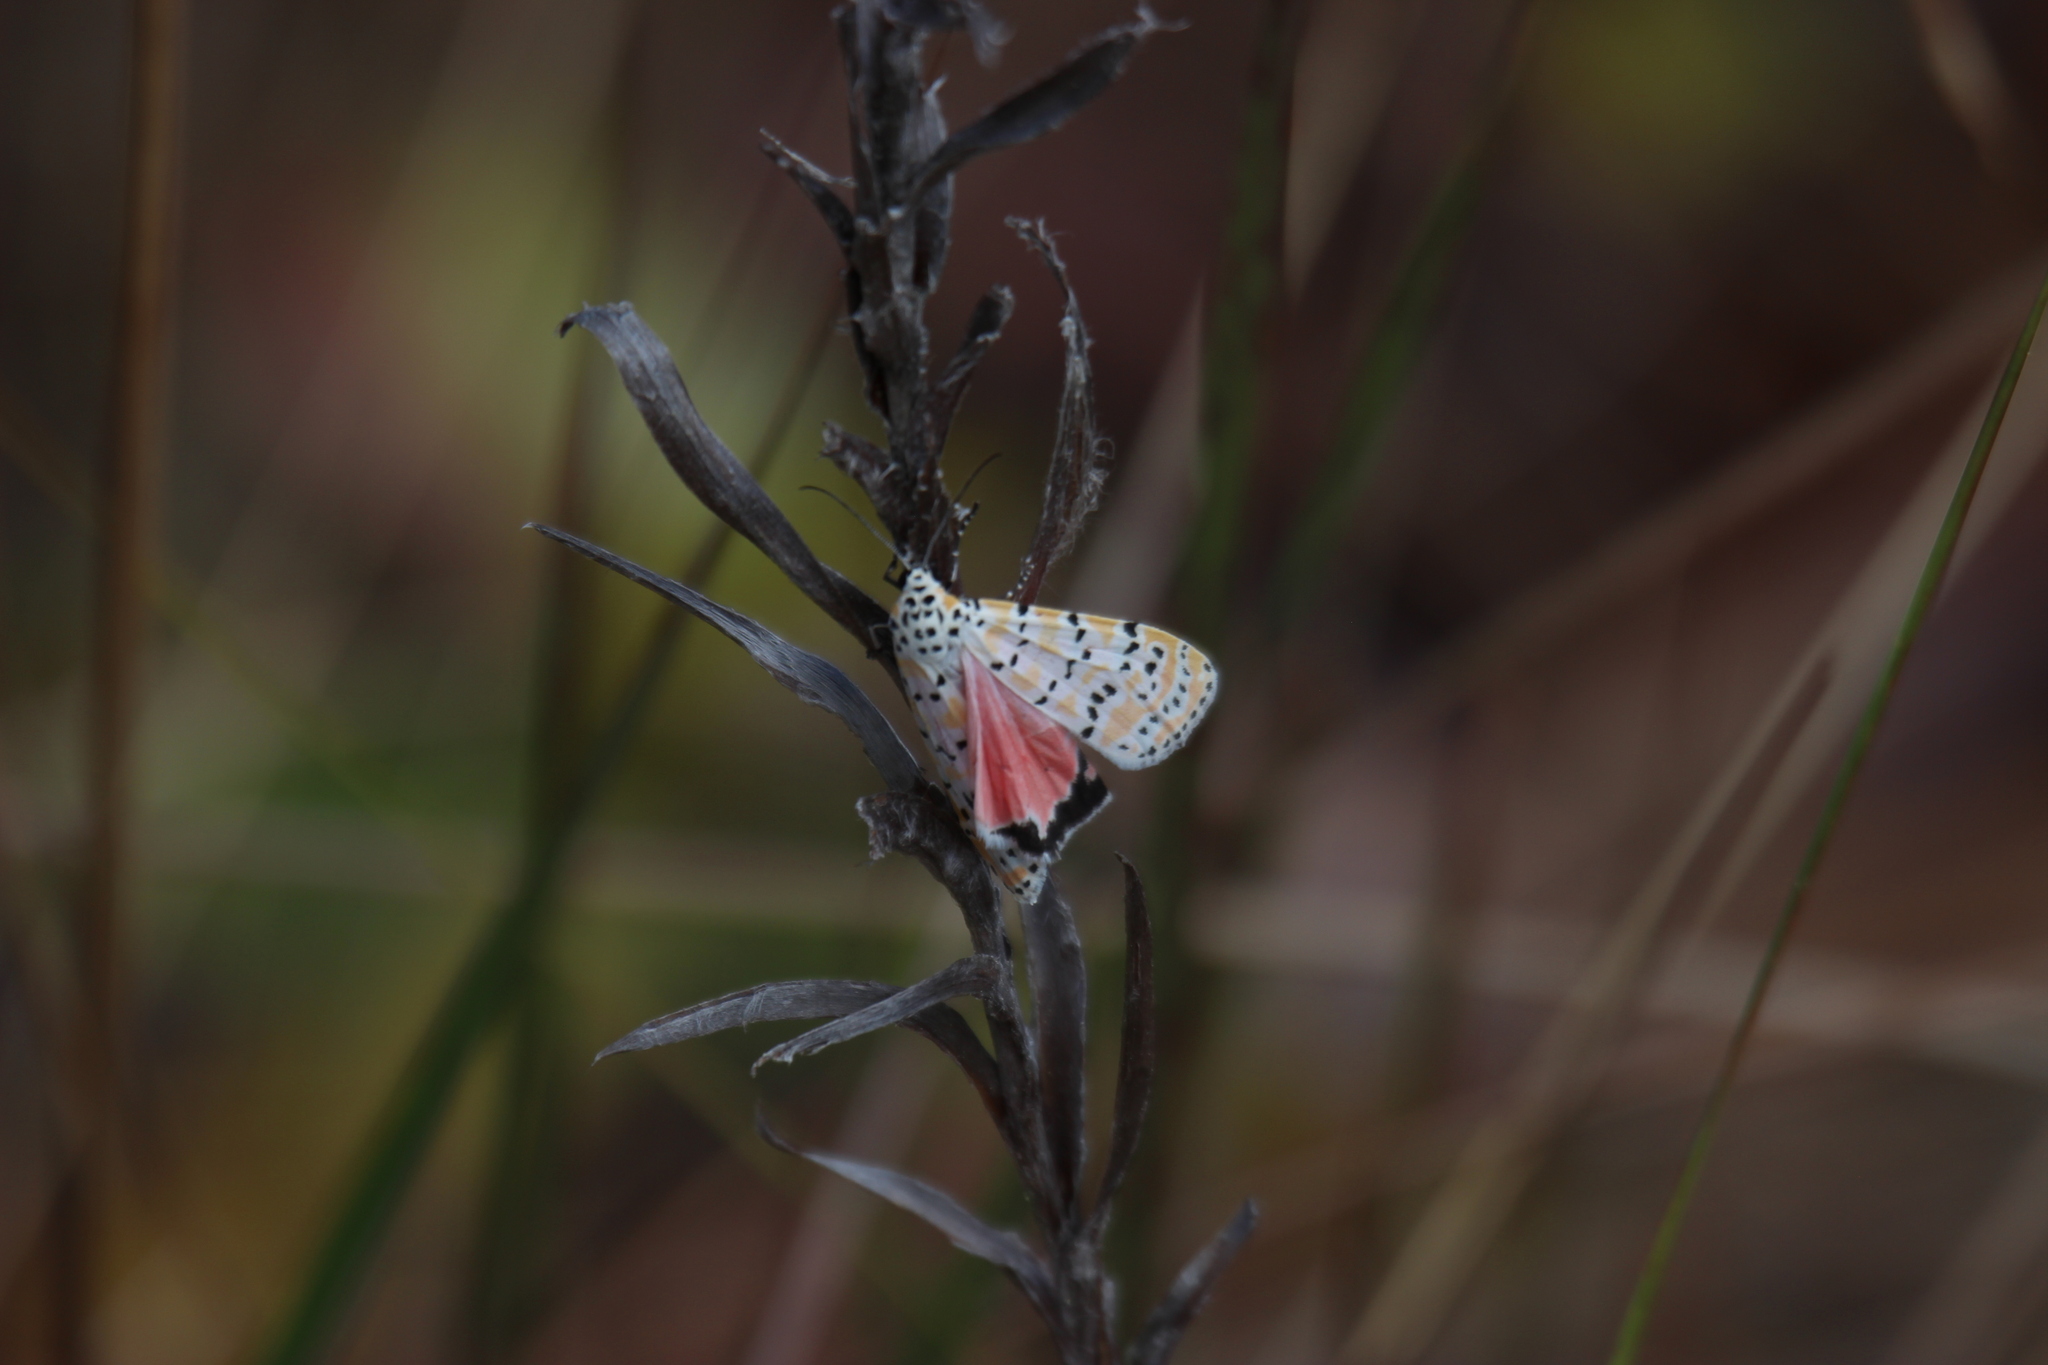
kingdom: Animalia
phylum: Arthropoda
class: Insecta
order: Lepidoptera
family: Erebidae
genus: Utetheisa
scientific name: Utetheisa ornatrix
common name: Beautiful utetheisa
